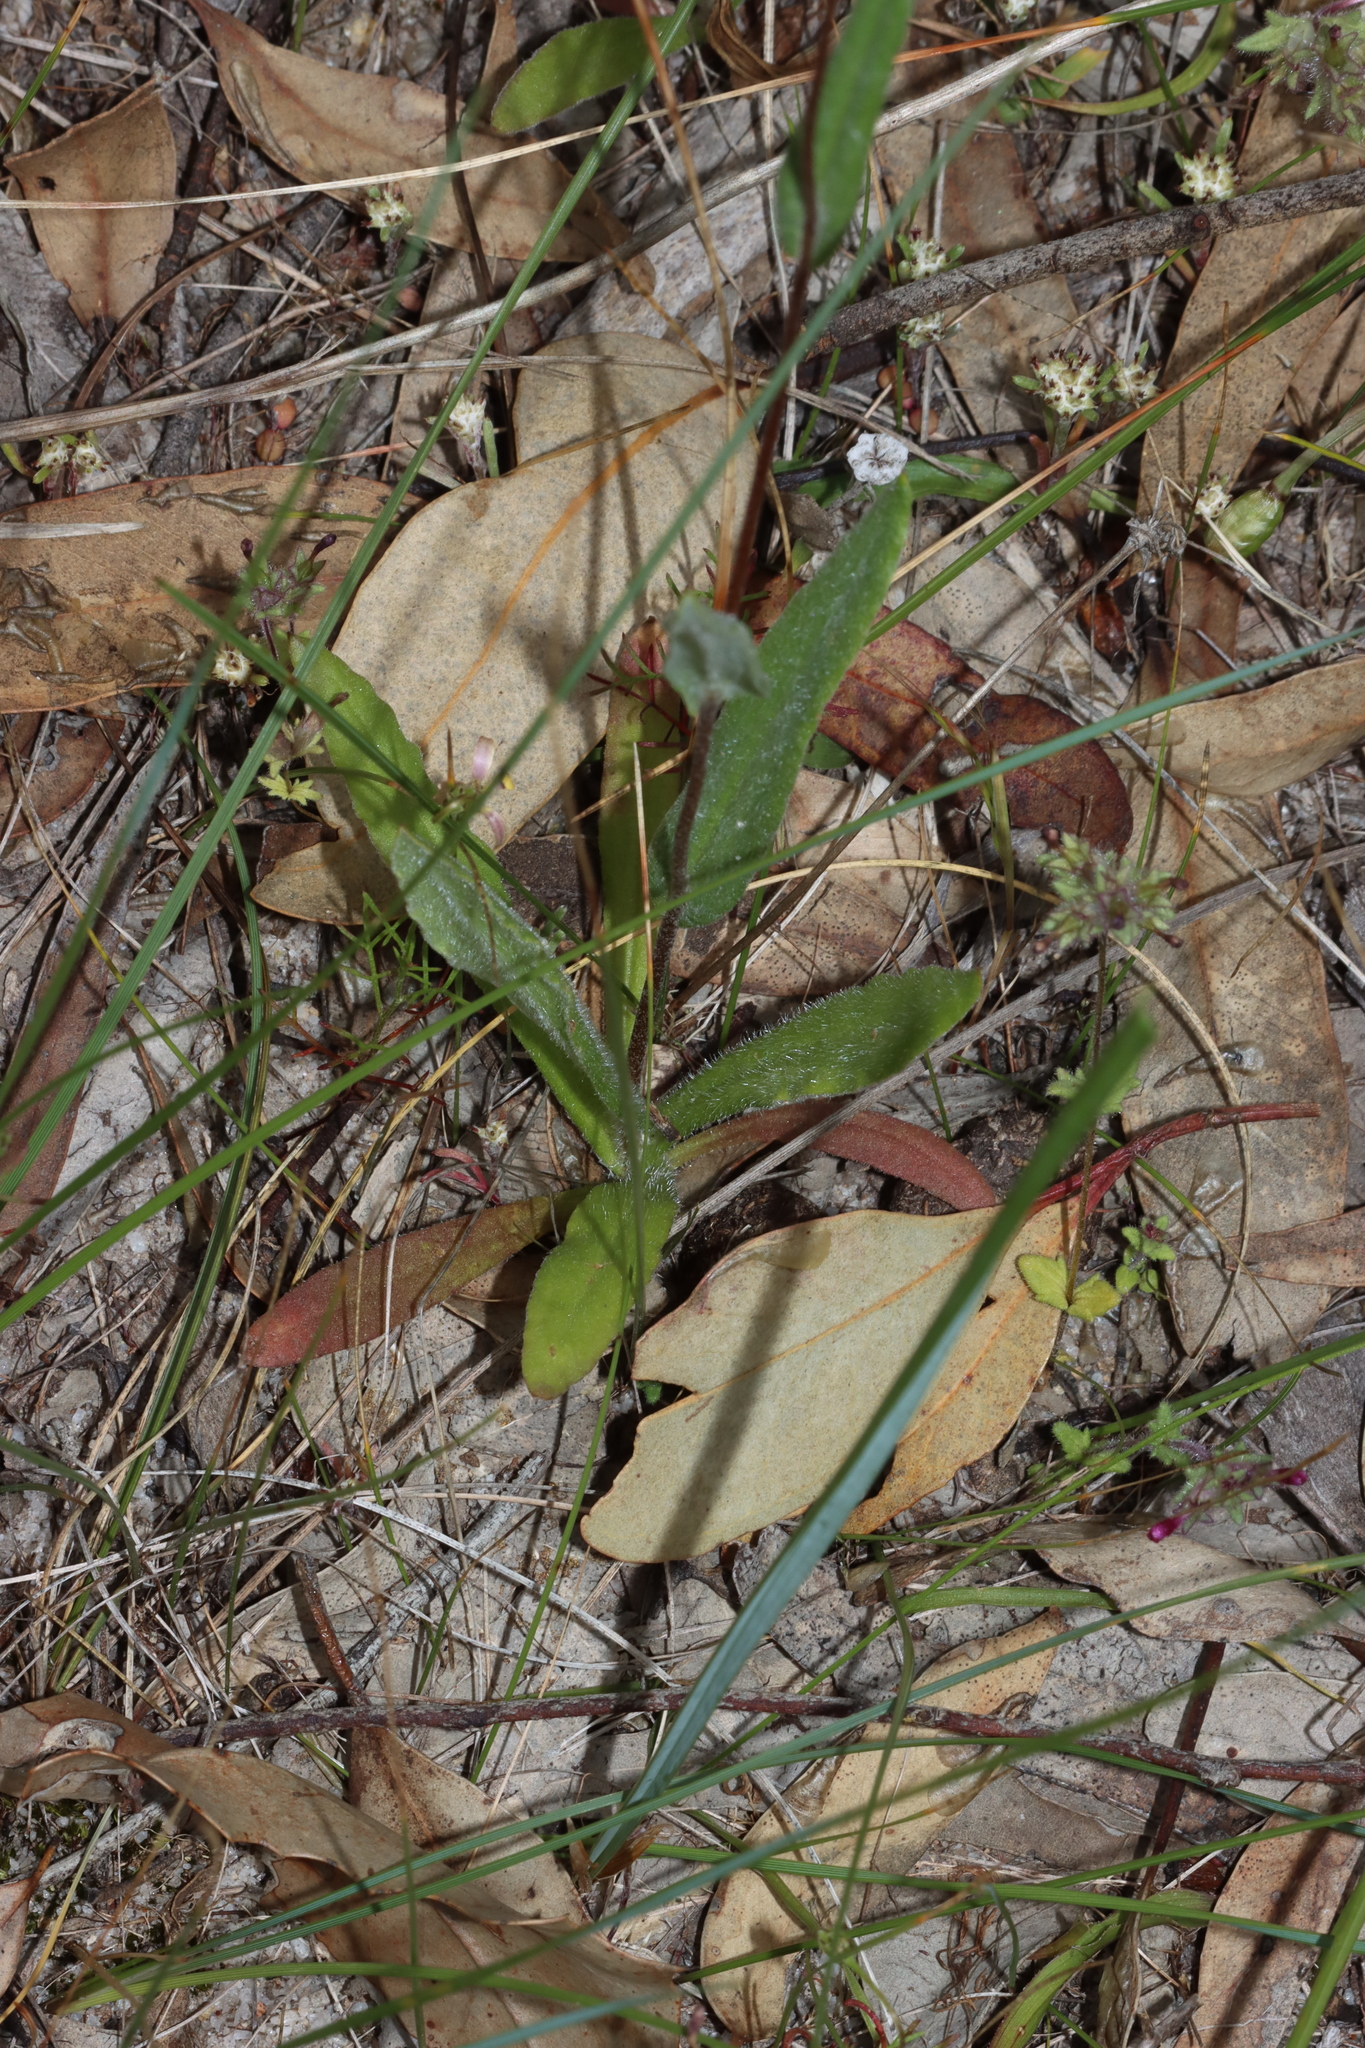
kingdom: Plantae
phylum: Tracheophyta
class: Magnoliopsida
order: Asterales
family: Asteraceae
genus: Podolepis
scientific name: Podolepis aristata
